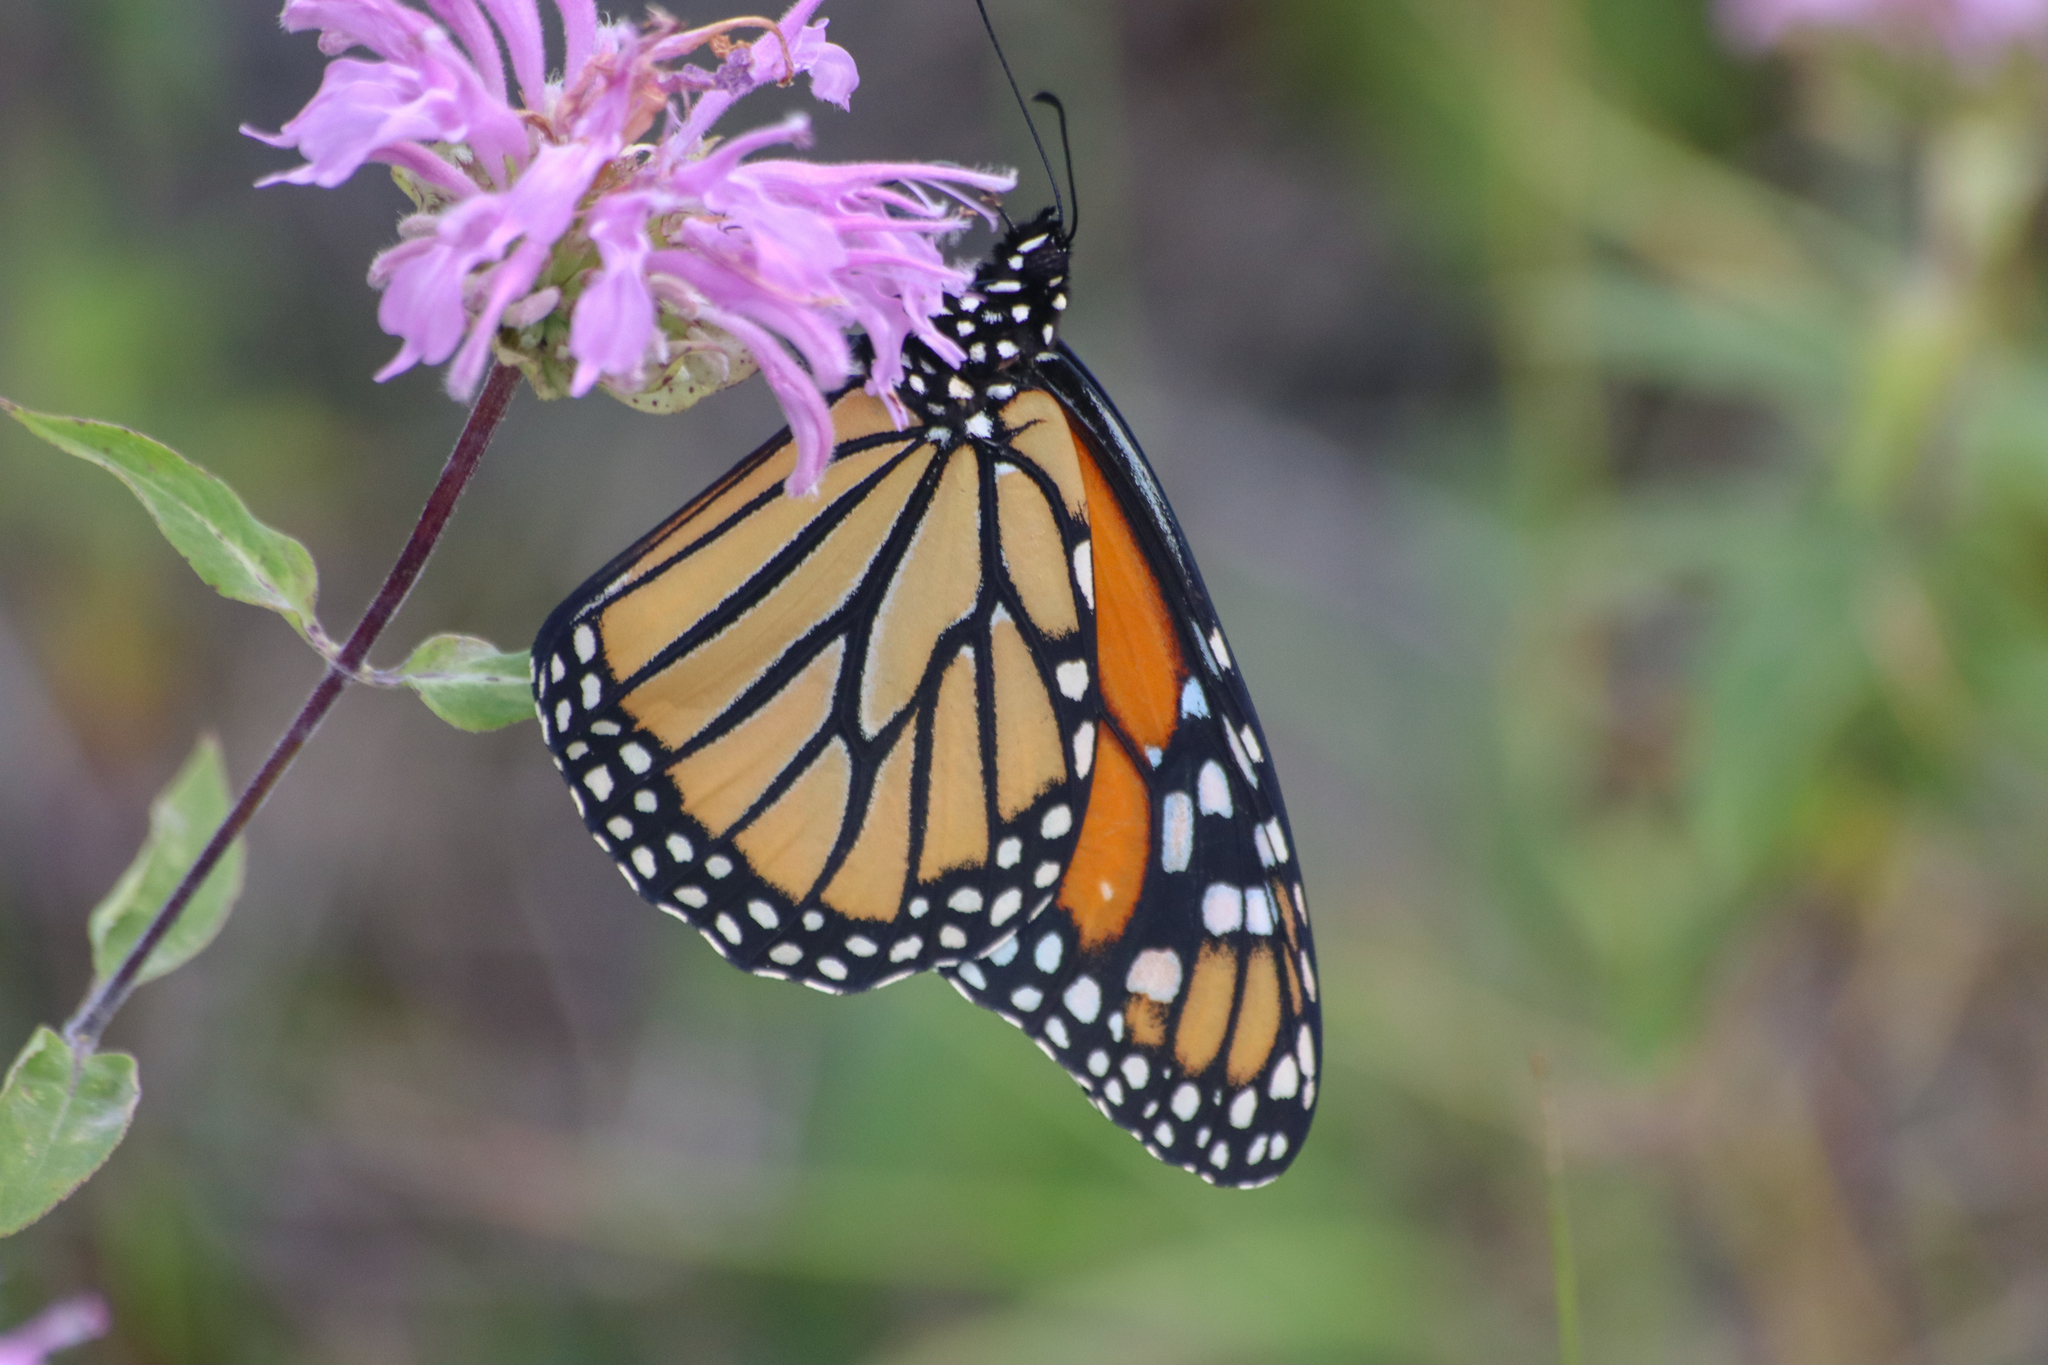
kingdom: Animalia
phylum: Arthropoda
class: Insecta
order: Lepidoptera
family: Nymphalidae
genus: Danaus
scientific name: Danaus plexippus
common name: Monarch
